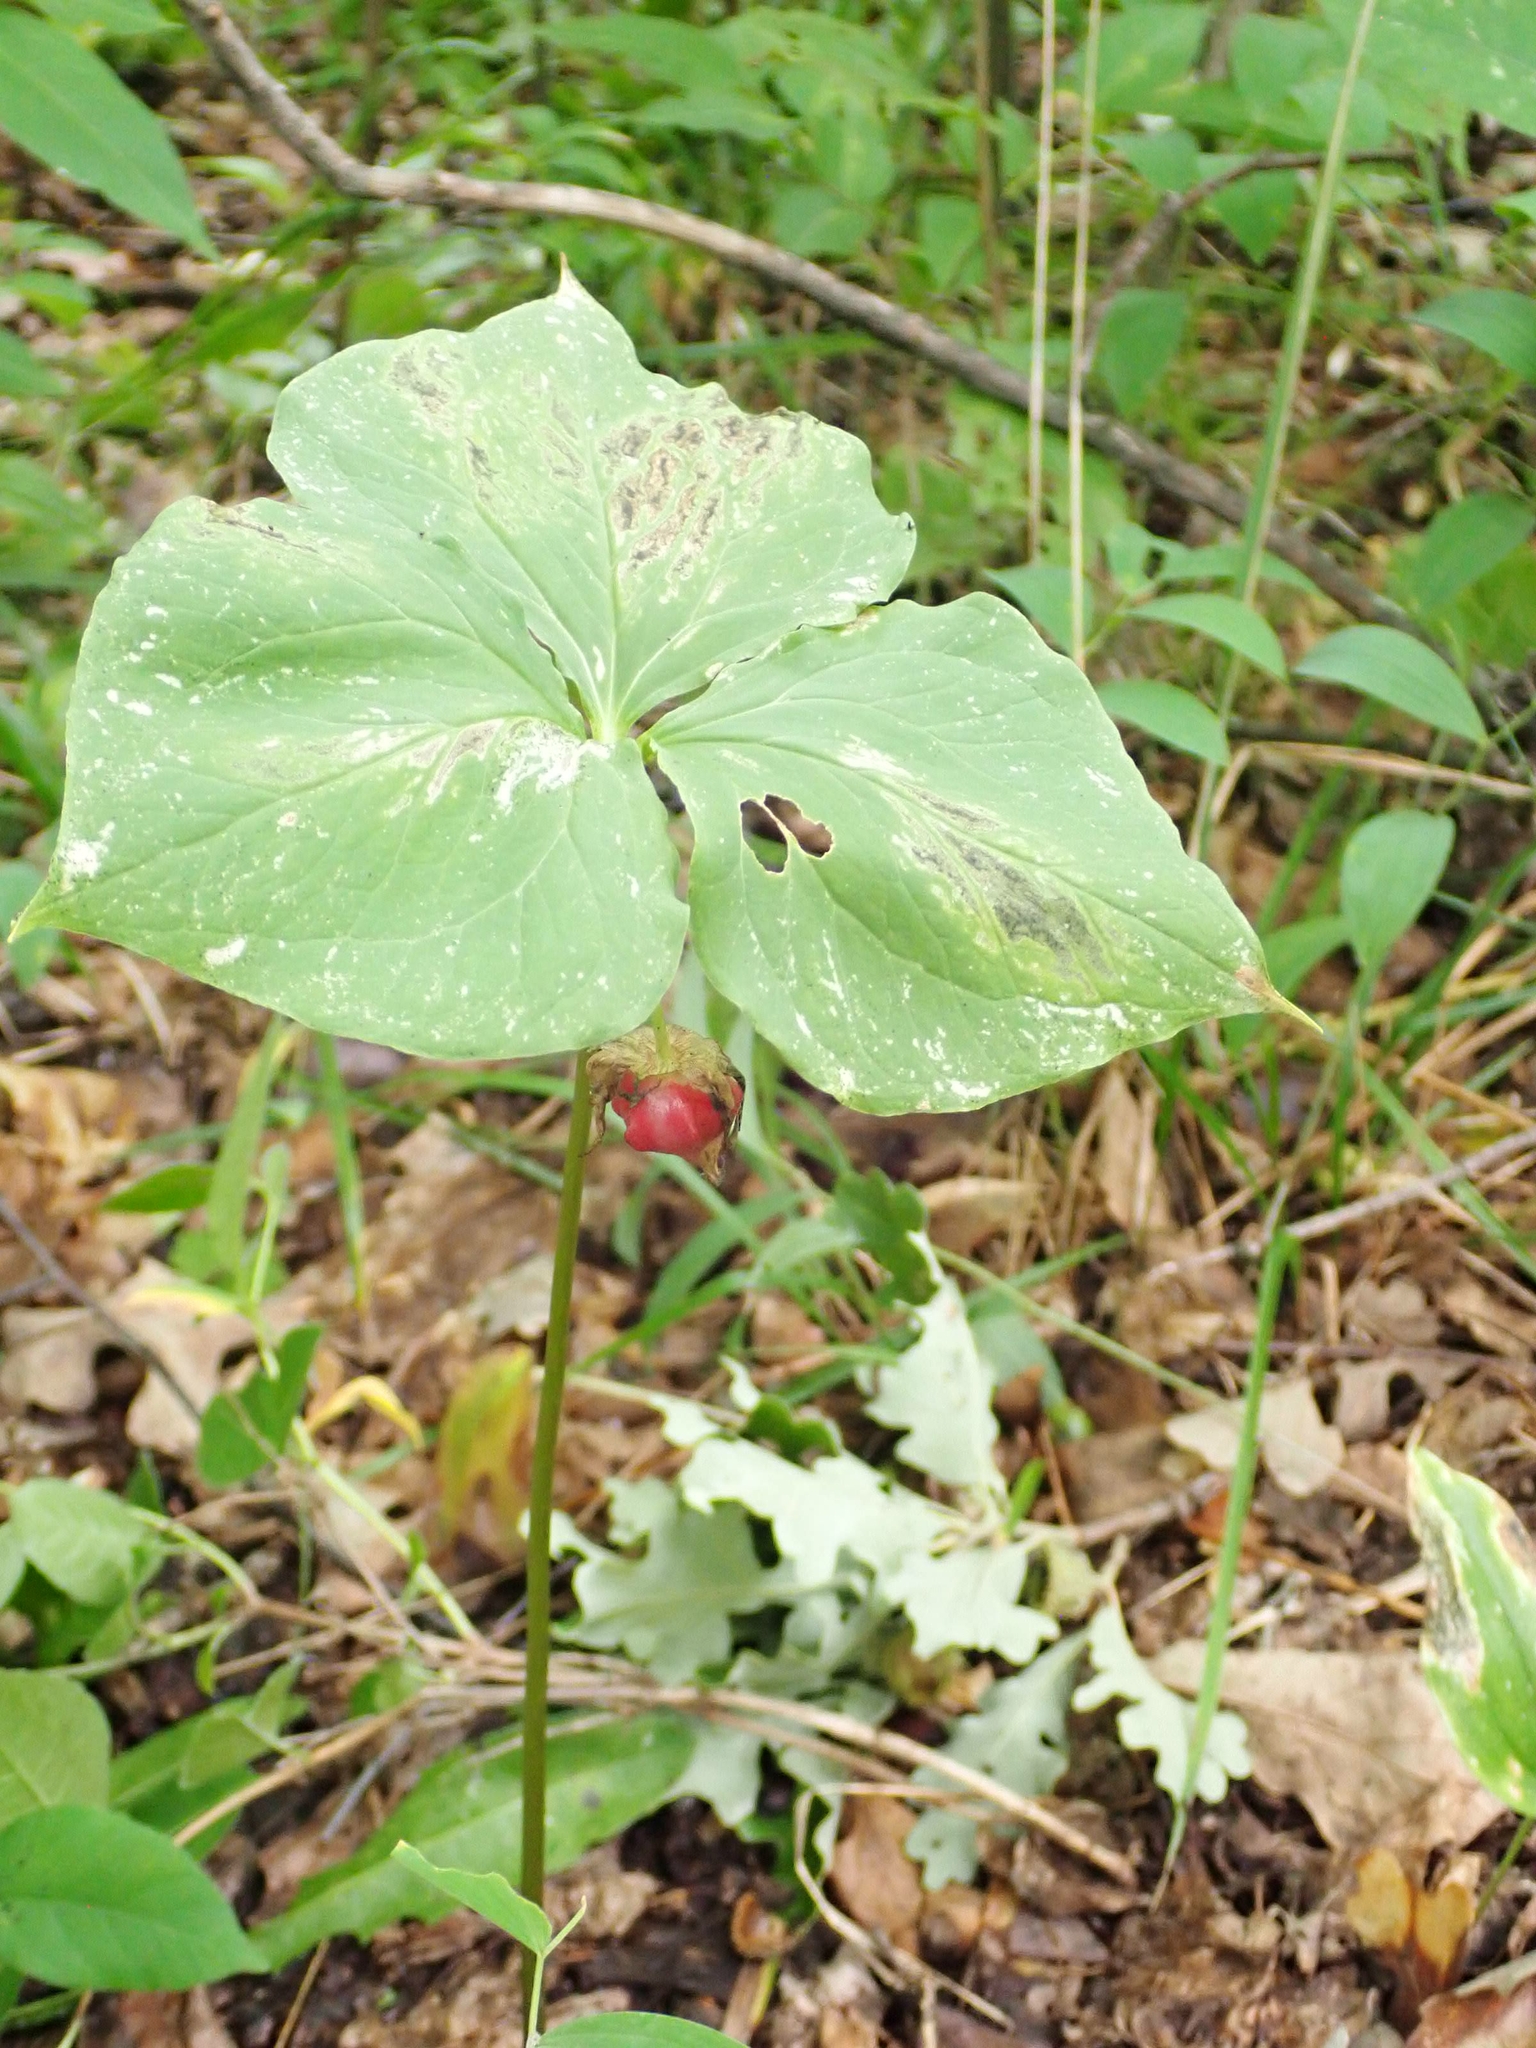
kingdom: Plantae
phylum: Tracheophyta
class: Liliopsida
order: Liliales
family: Melanthiaceae
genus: Trillium
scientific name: Trillium cernuum
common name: Nodding trillium
